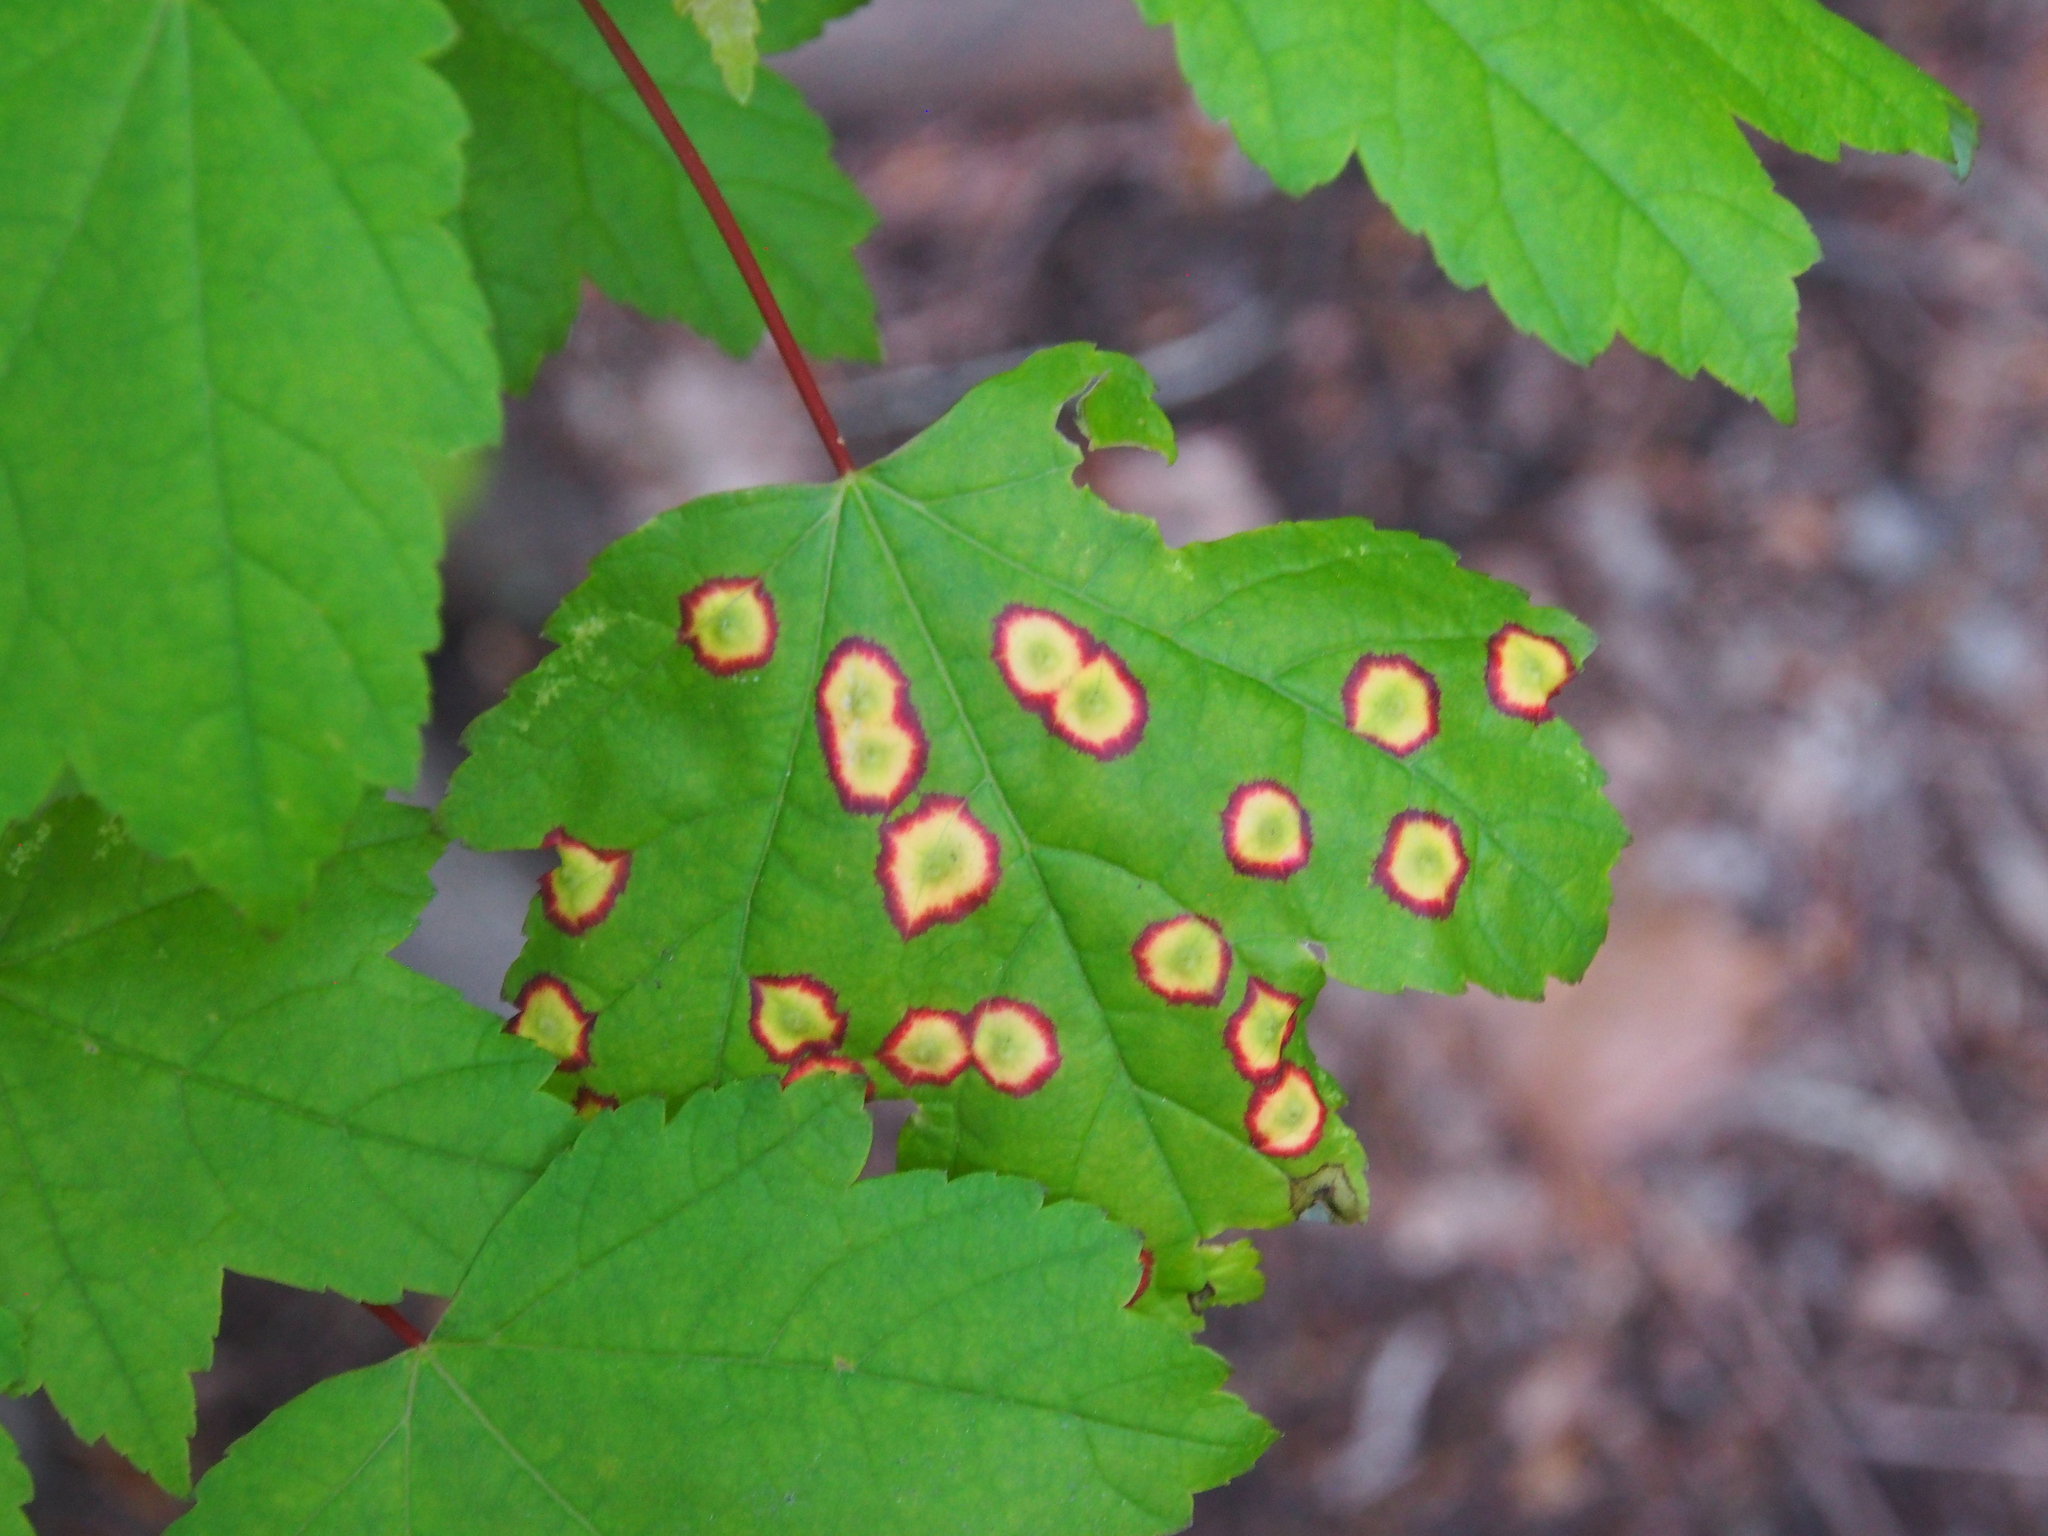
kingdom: Animalia
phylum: Arthropoda
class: Insecta
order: Diptera
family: Cecidomyiidae
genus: Acericecis
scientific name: Acericecis ocellaris
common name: Ocellate gall midge
